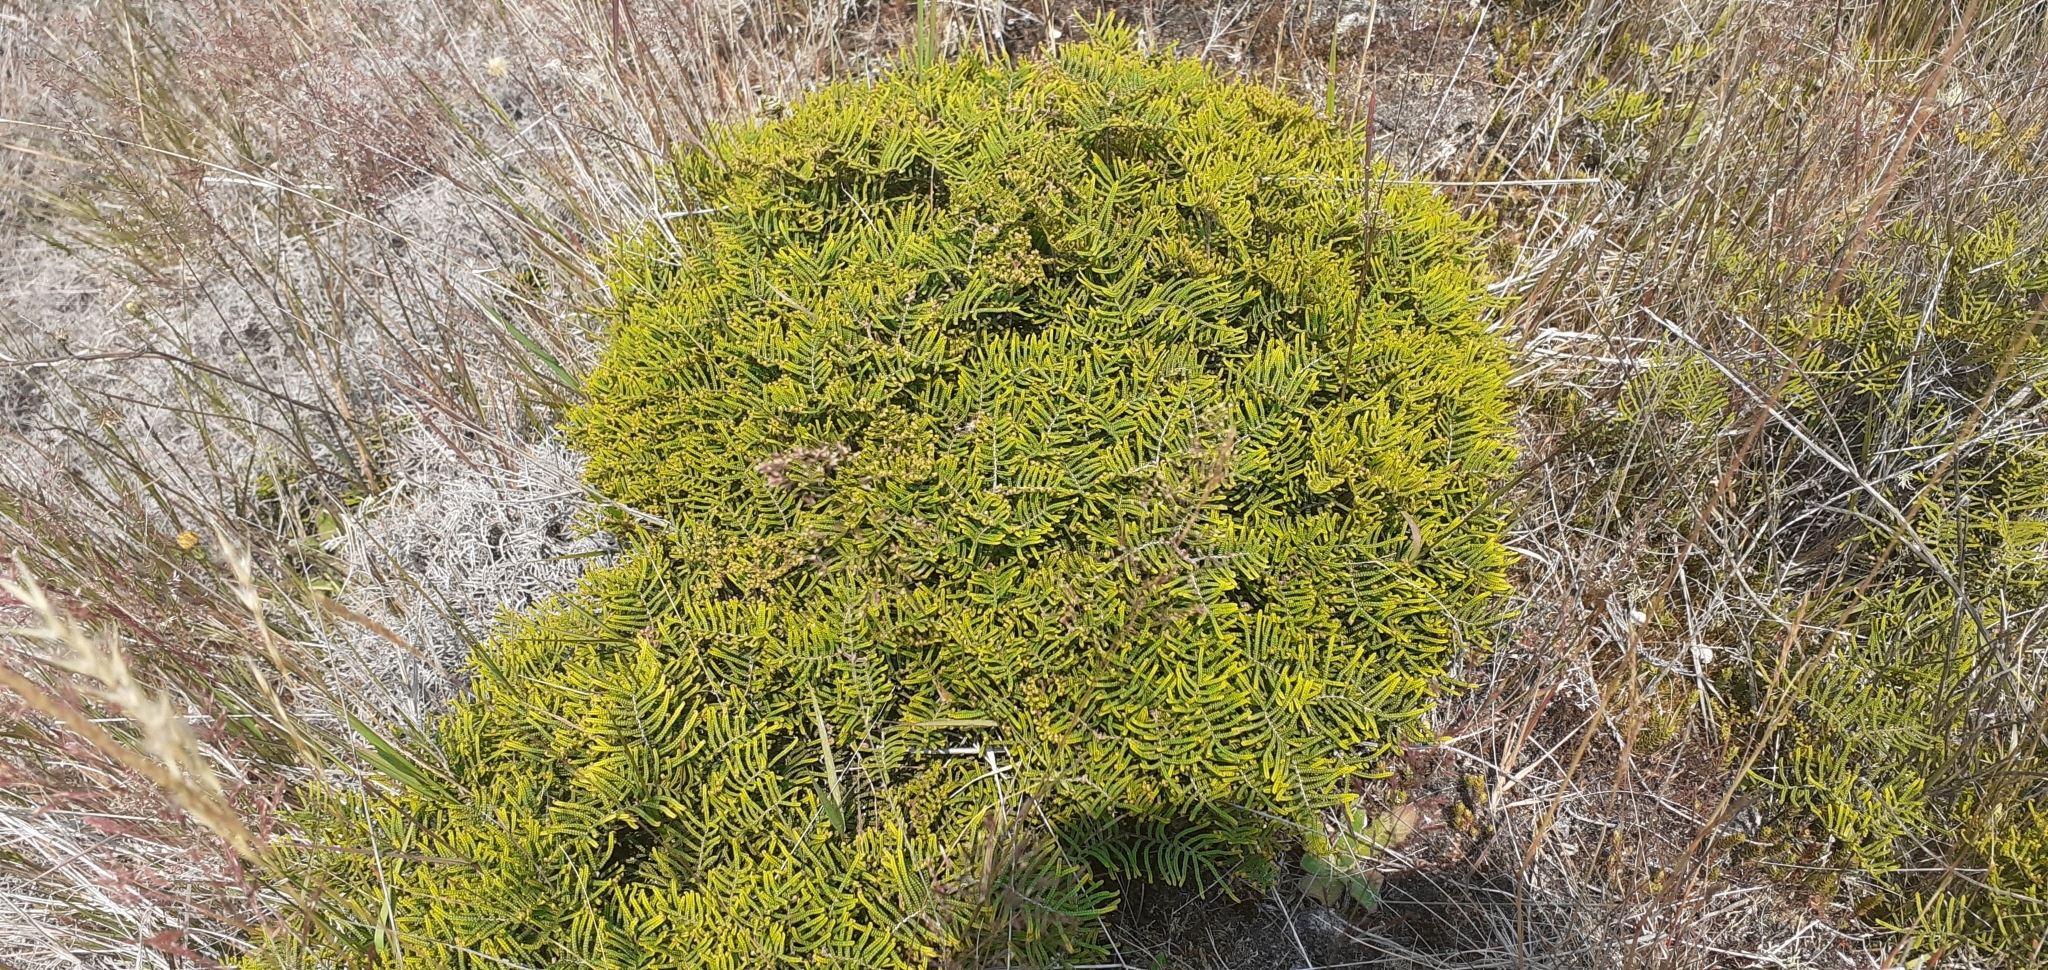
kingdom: Plantae
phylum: Tracheophyta
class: Polypodiopsida
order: Gleicheniales
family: Gleicheniaceae
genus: Gleichenia
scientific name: Gleichenia alpina
